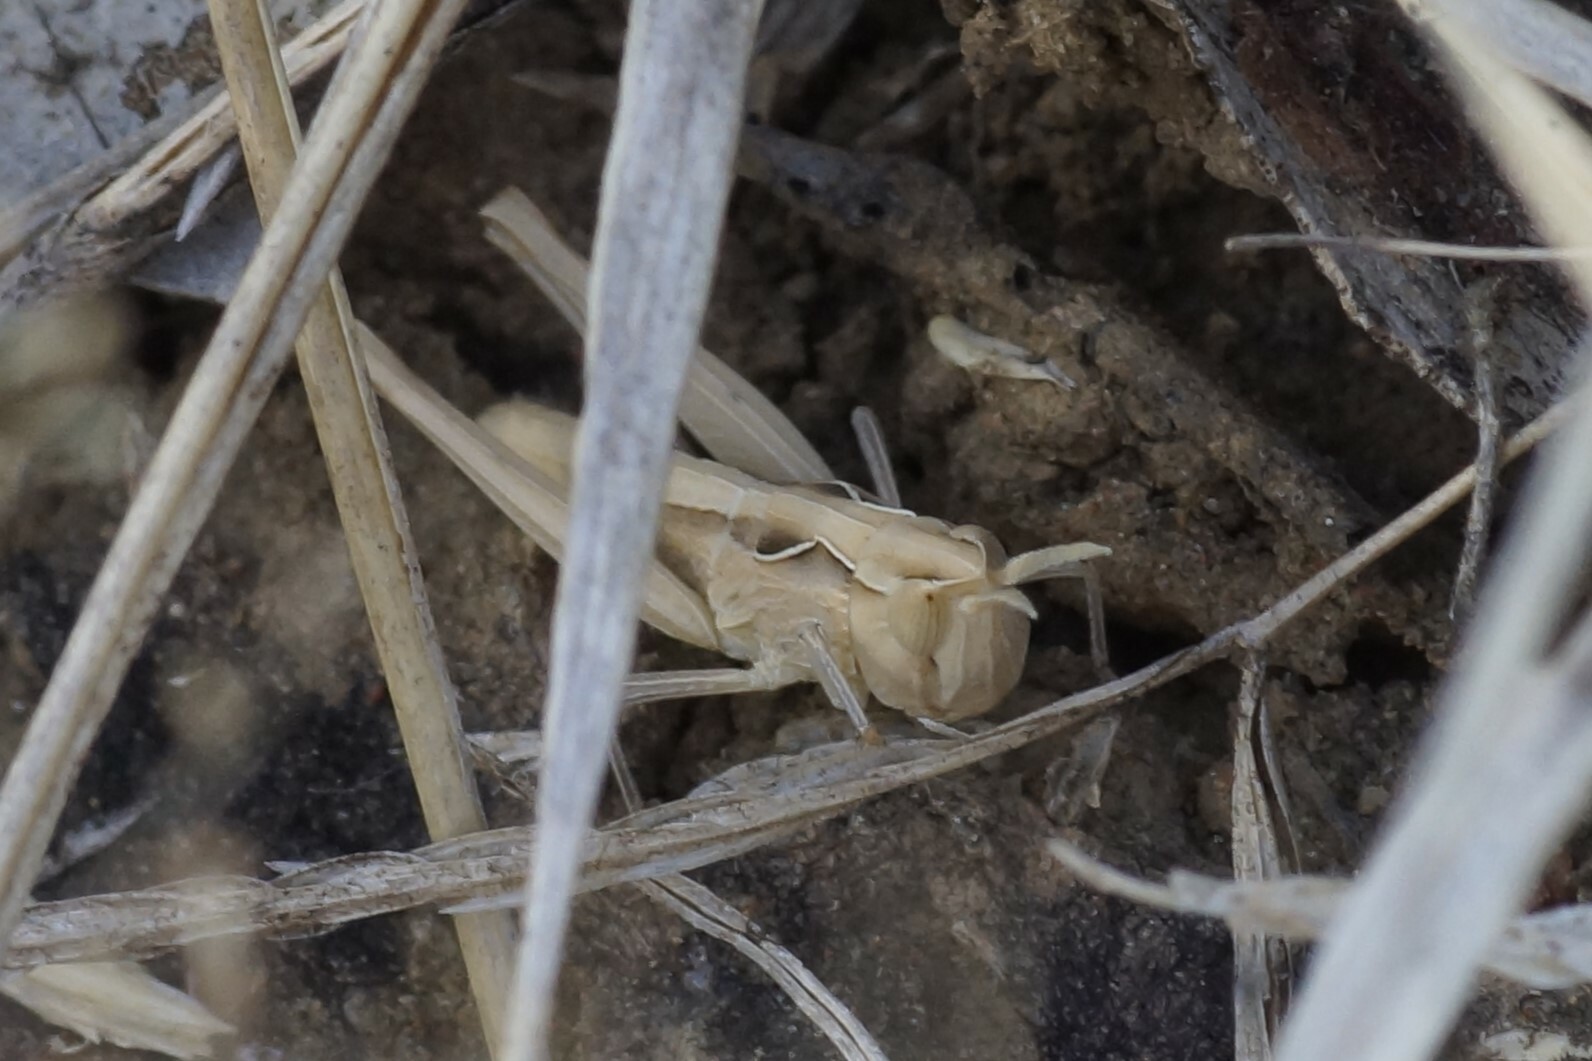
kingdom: Animalia
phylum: Arthropoda
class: Insecta
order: Orthoptera
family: Acrididae
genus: Aiolopus
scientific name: Aiolopus thalassinus
